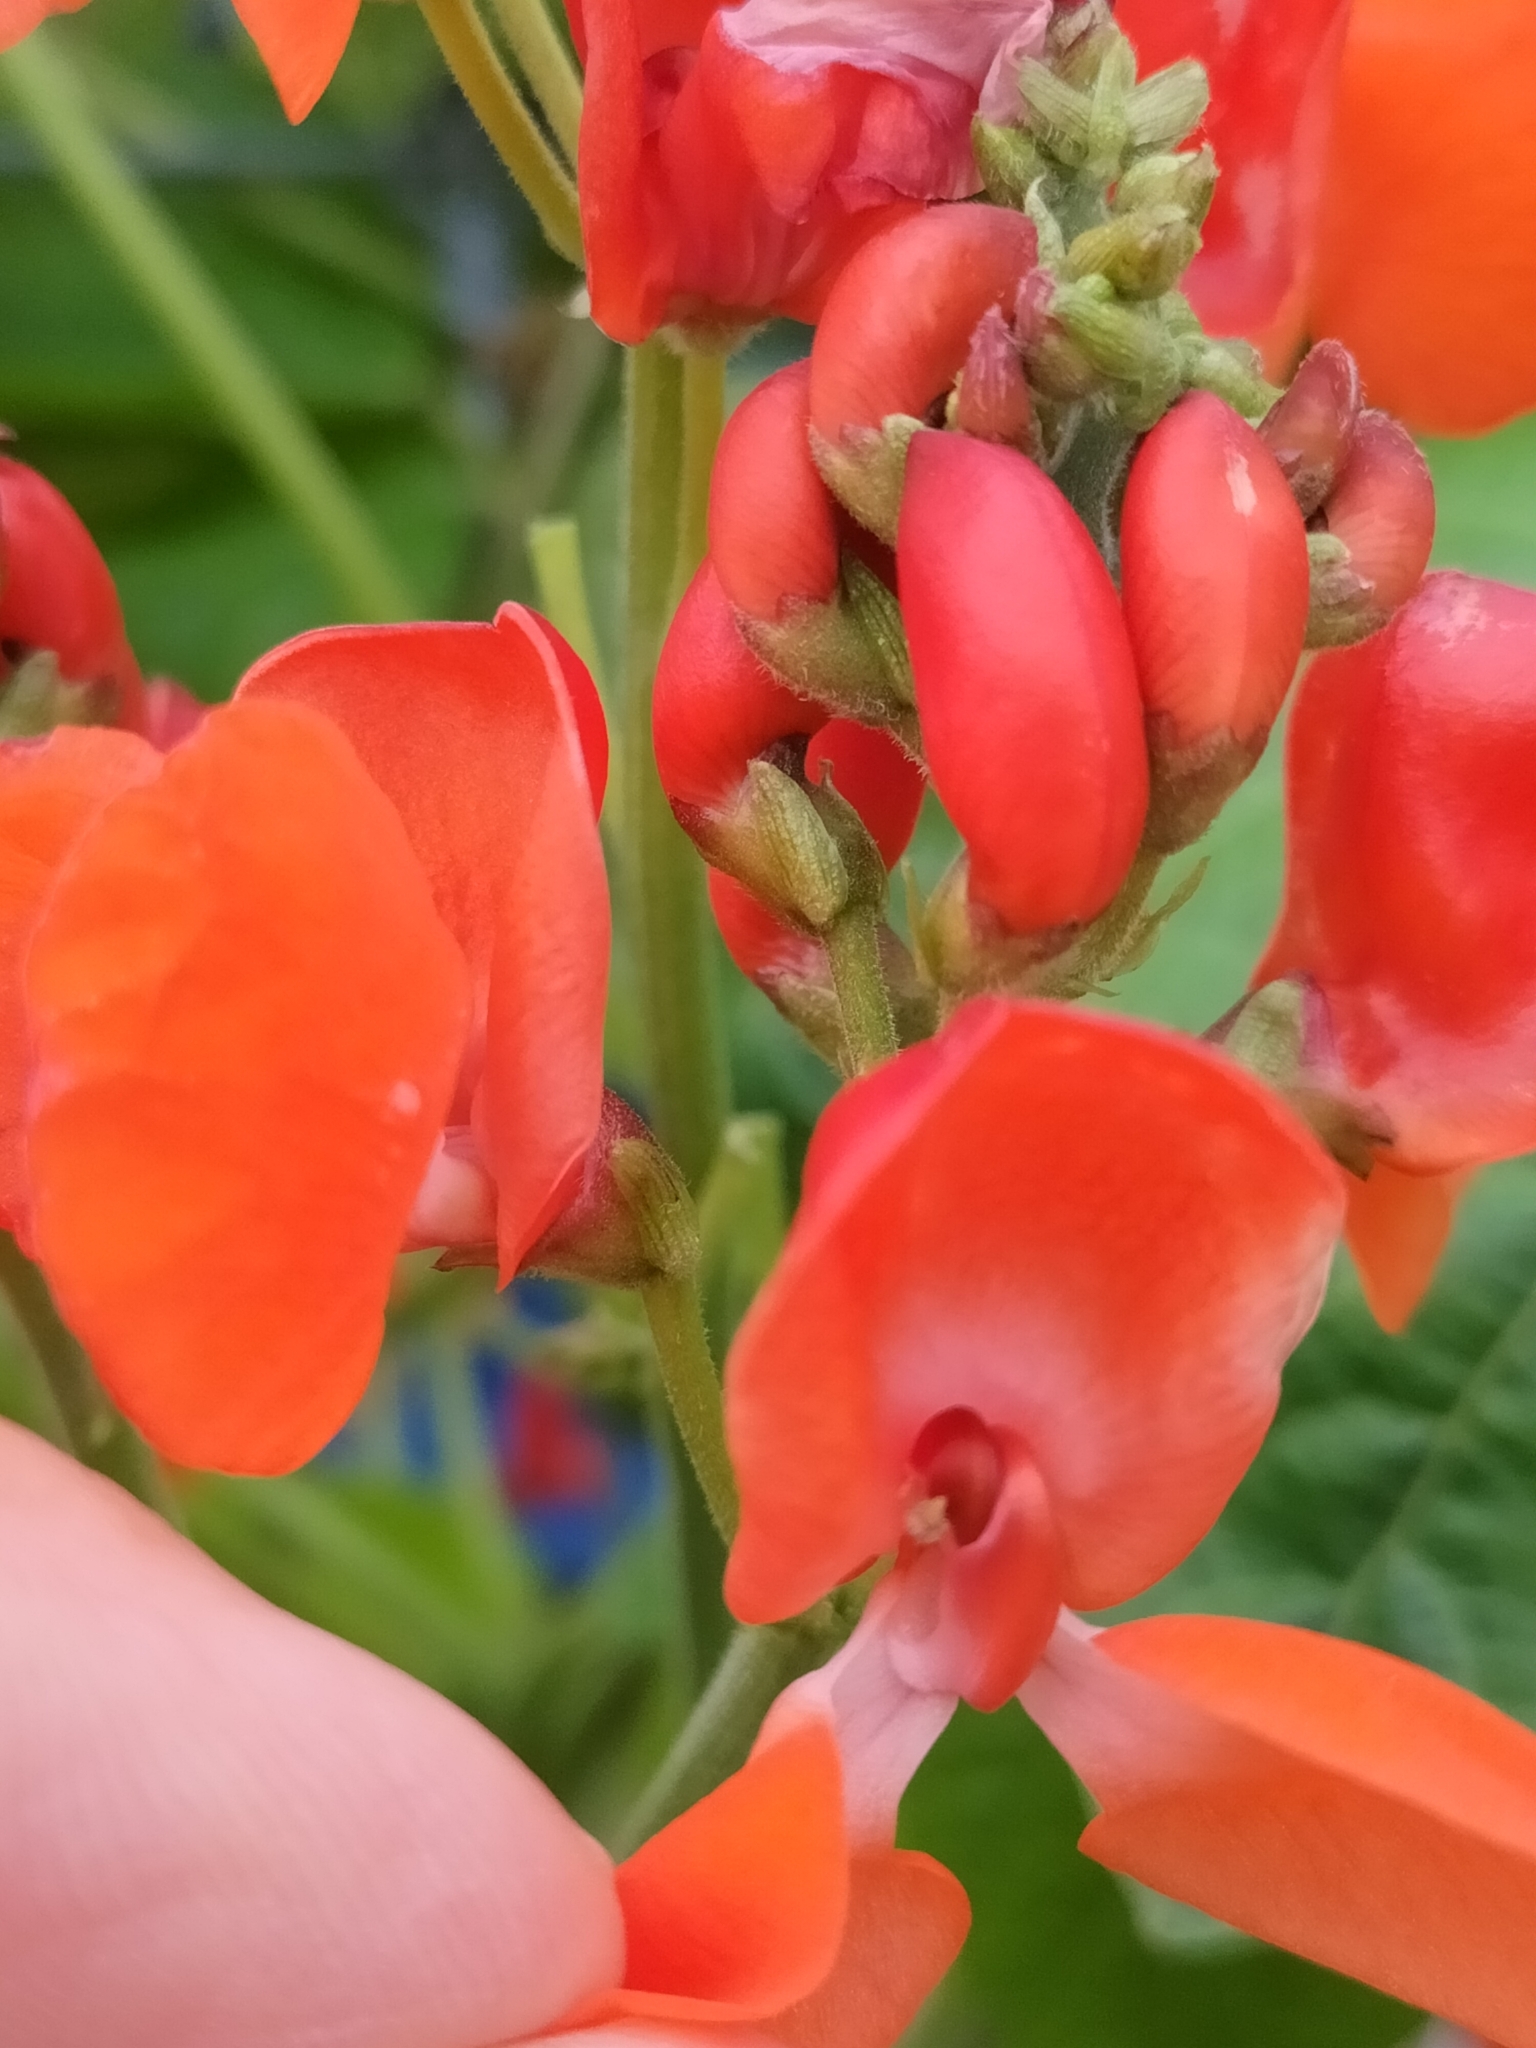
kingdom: Plantae
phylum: Tracheophyta
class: Magnoliopsida
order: Fabales
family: Fabaceae
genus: Phaseolus
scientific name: Phaseolus coccineus
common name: Runner bean
